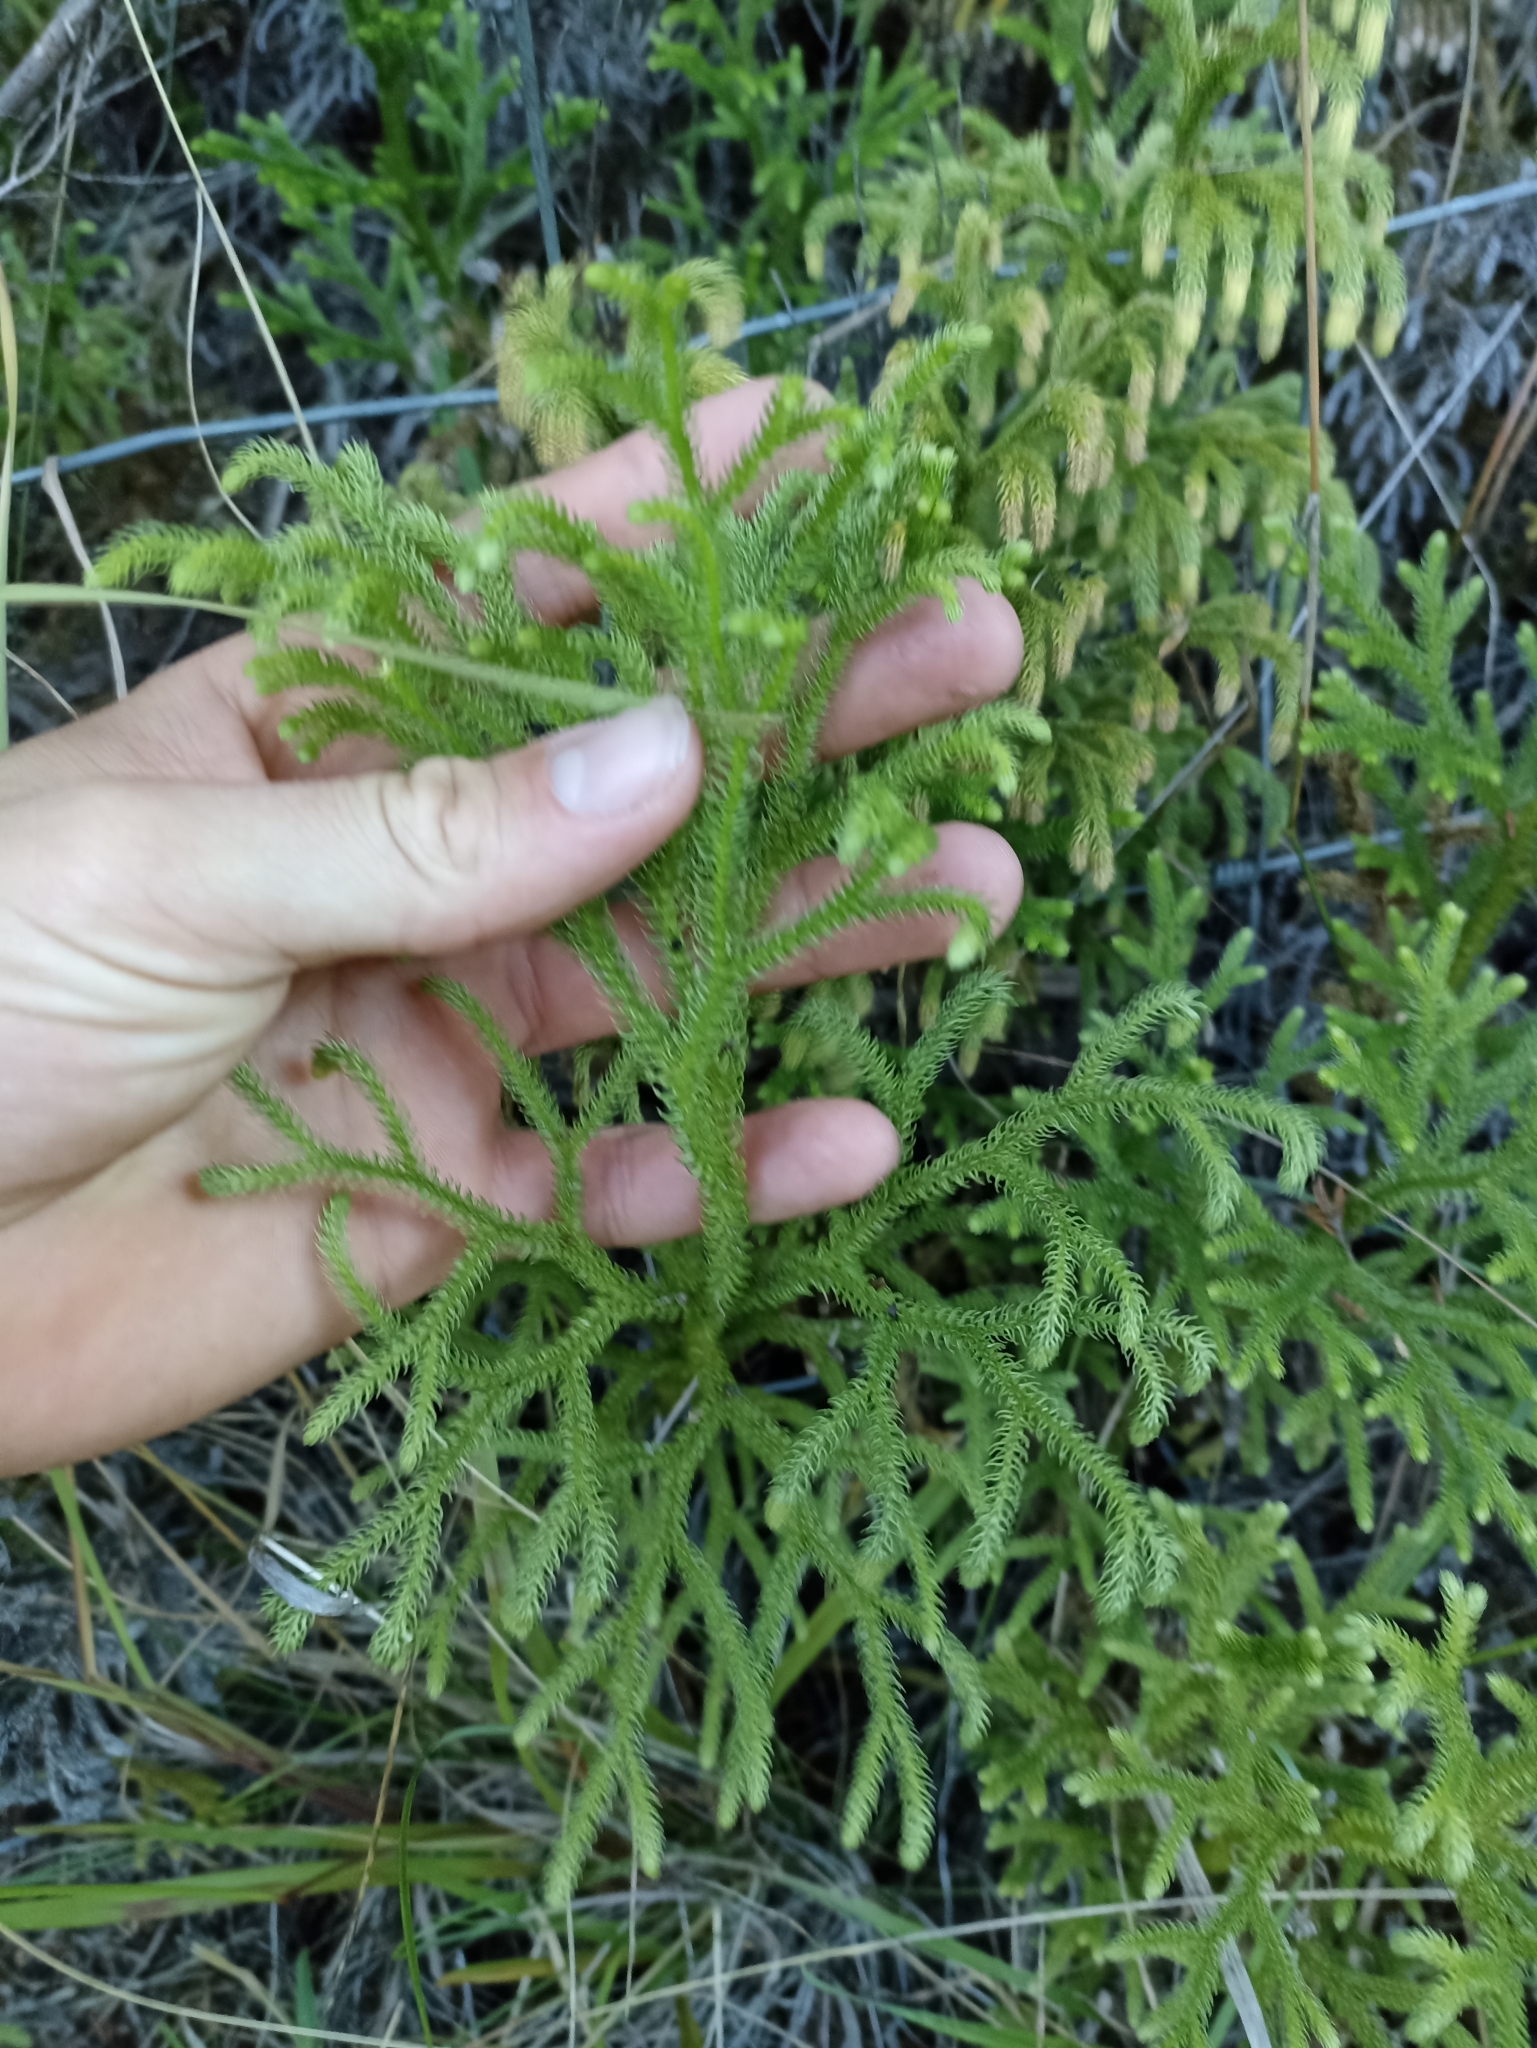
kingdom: Plantae
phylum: Tracheophyta
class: Lycopodiopsida
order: Lycopodiales
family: Lycopodiaceae
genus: Palhinhaea
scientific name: Palhinhaea cernua
